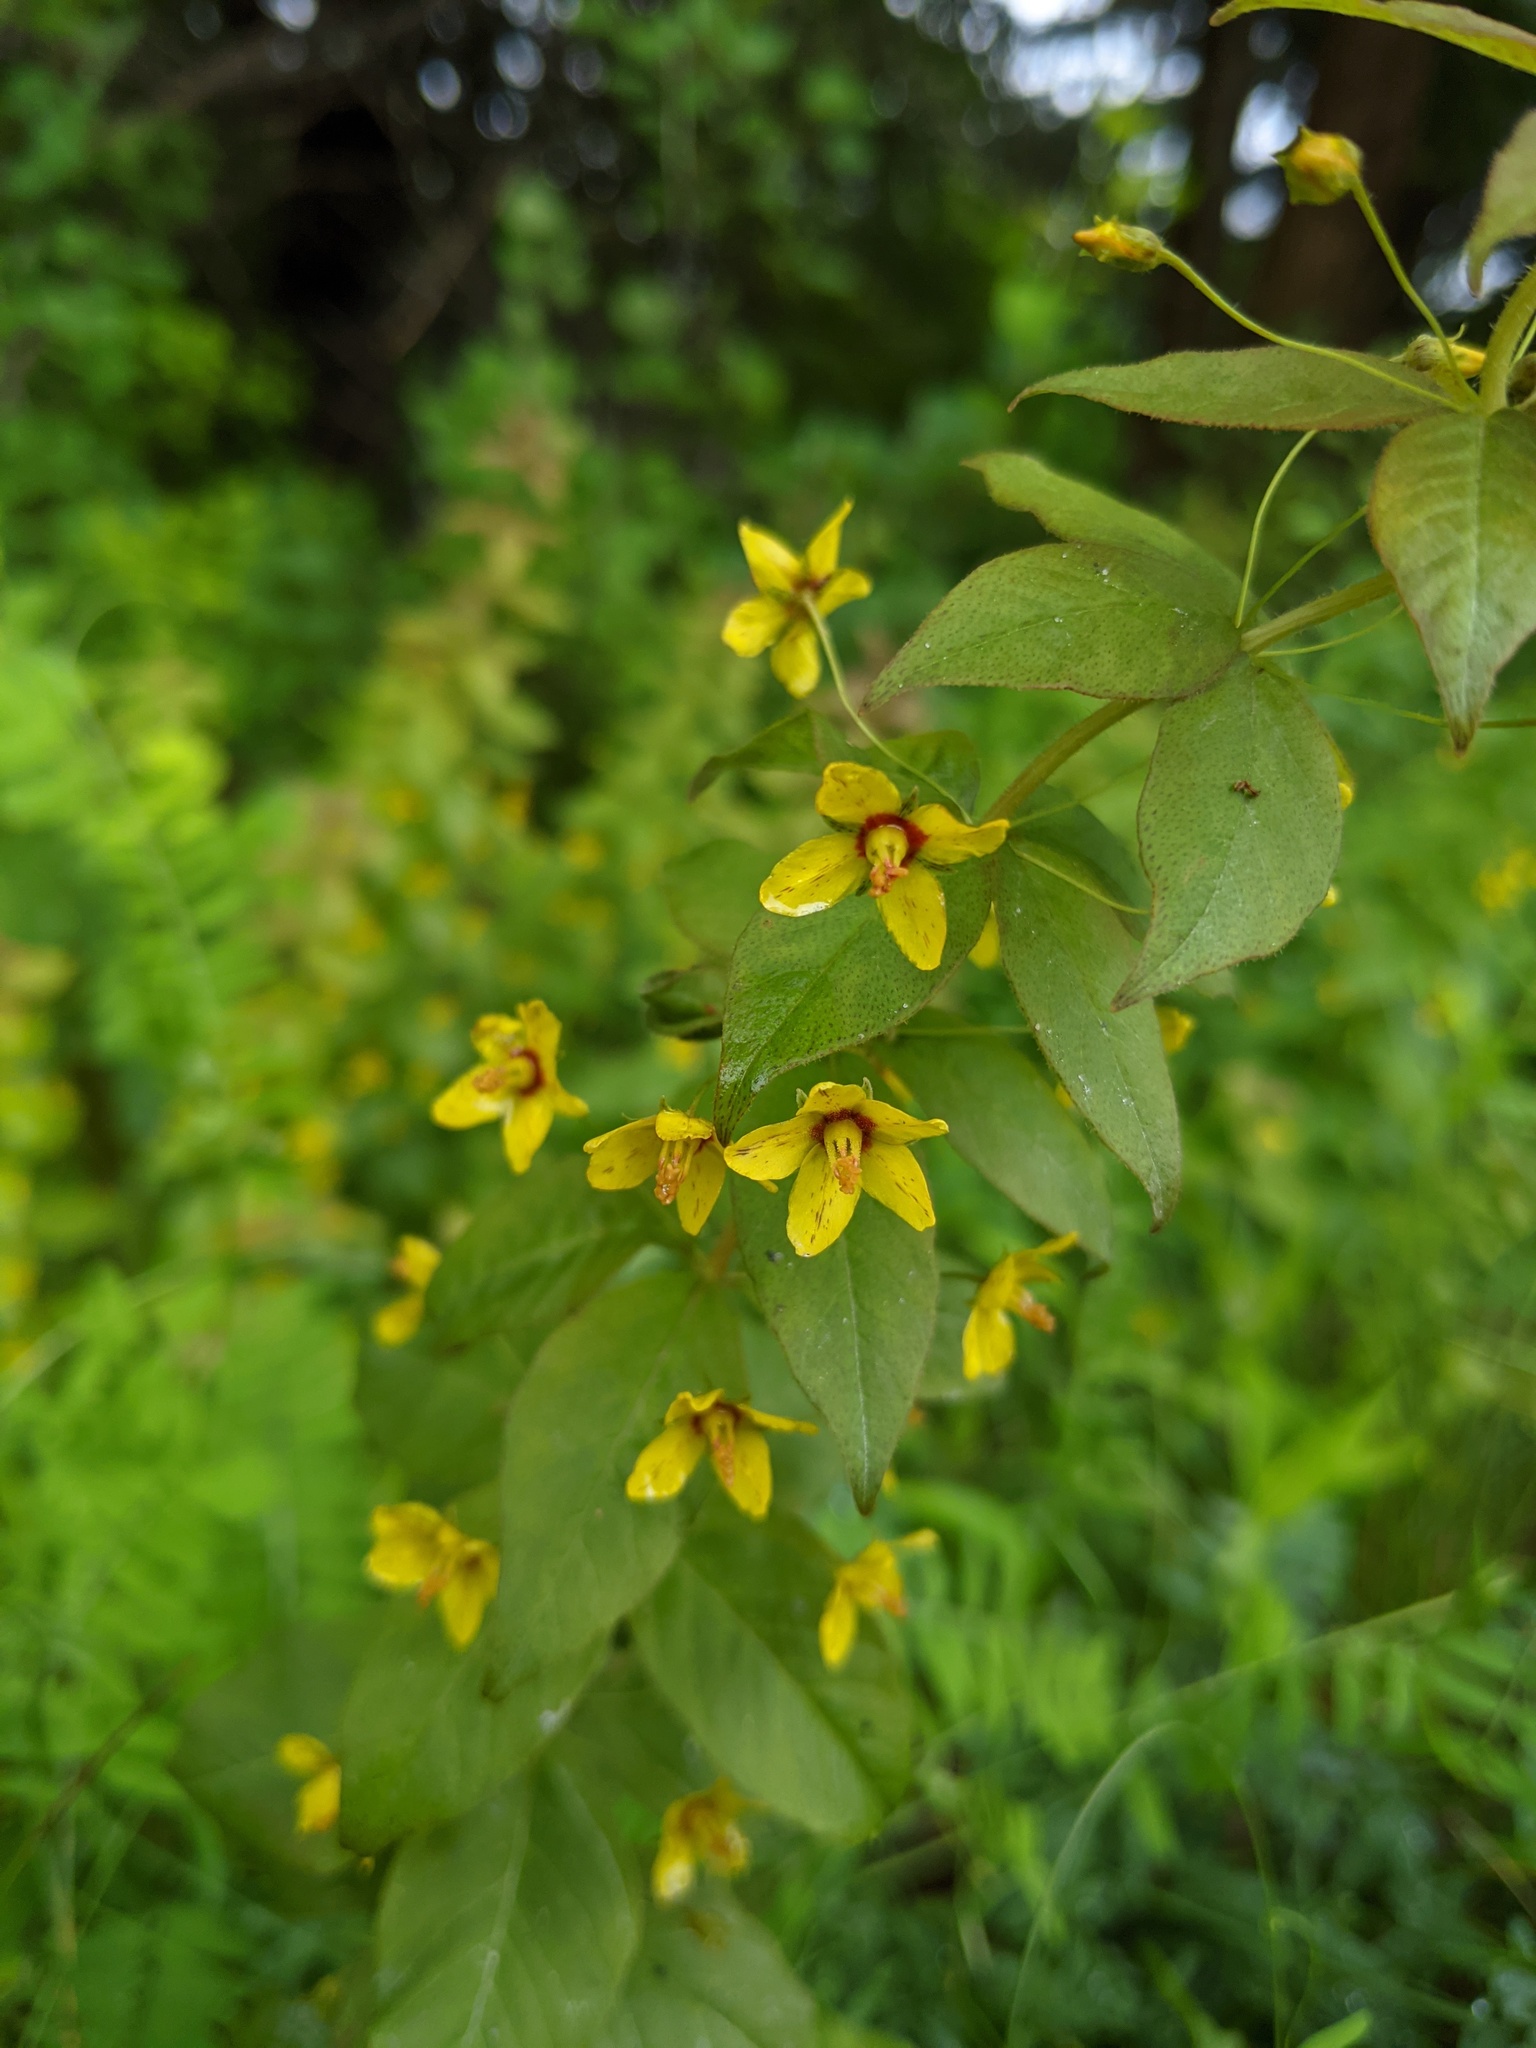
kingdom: Plantae
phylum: Tracheophyta
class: Magnoliopsida
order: Ericales
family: Primulaceae
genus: Lysimachia
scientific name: Lysimachia quadrifolia
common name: Whorled loosestrife
